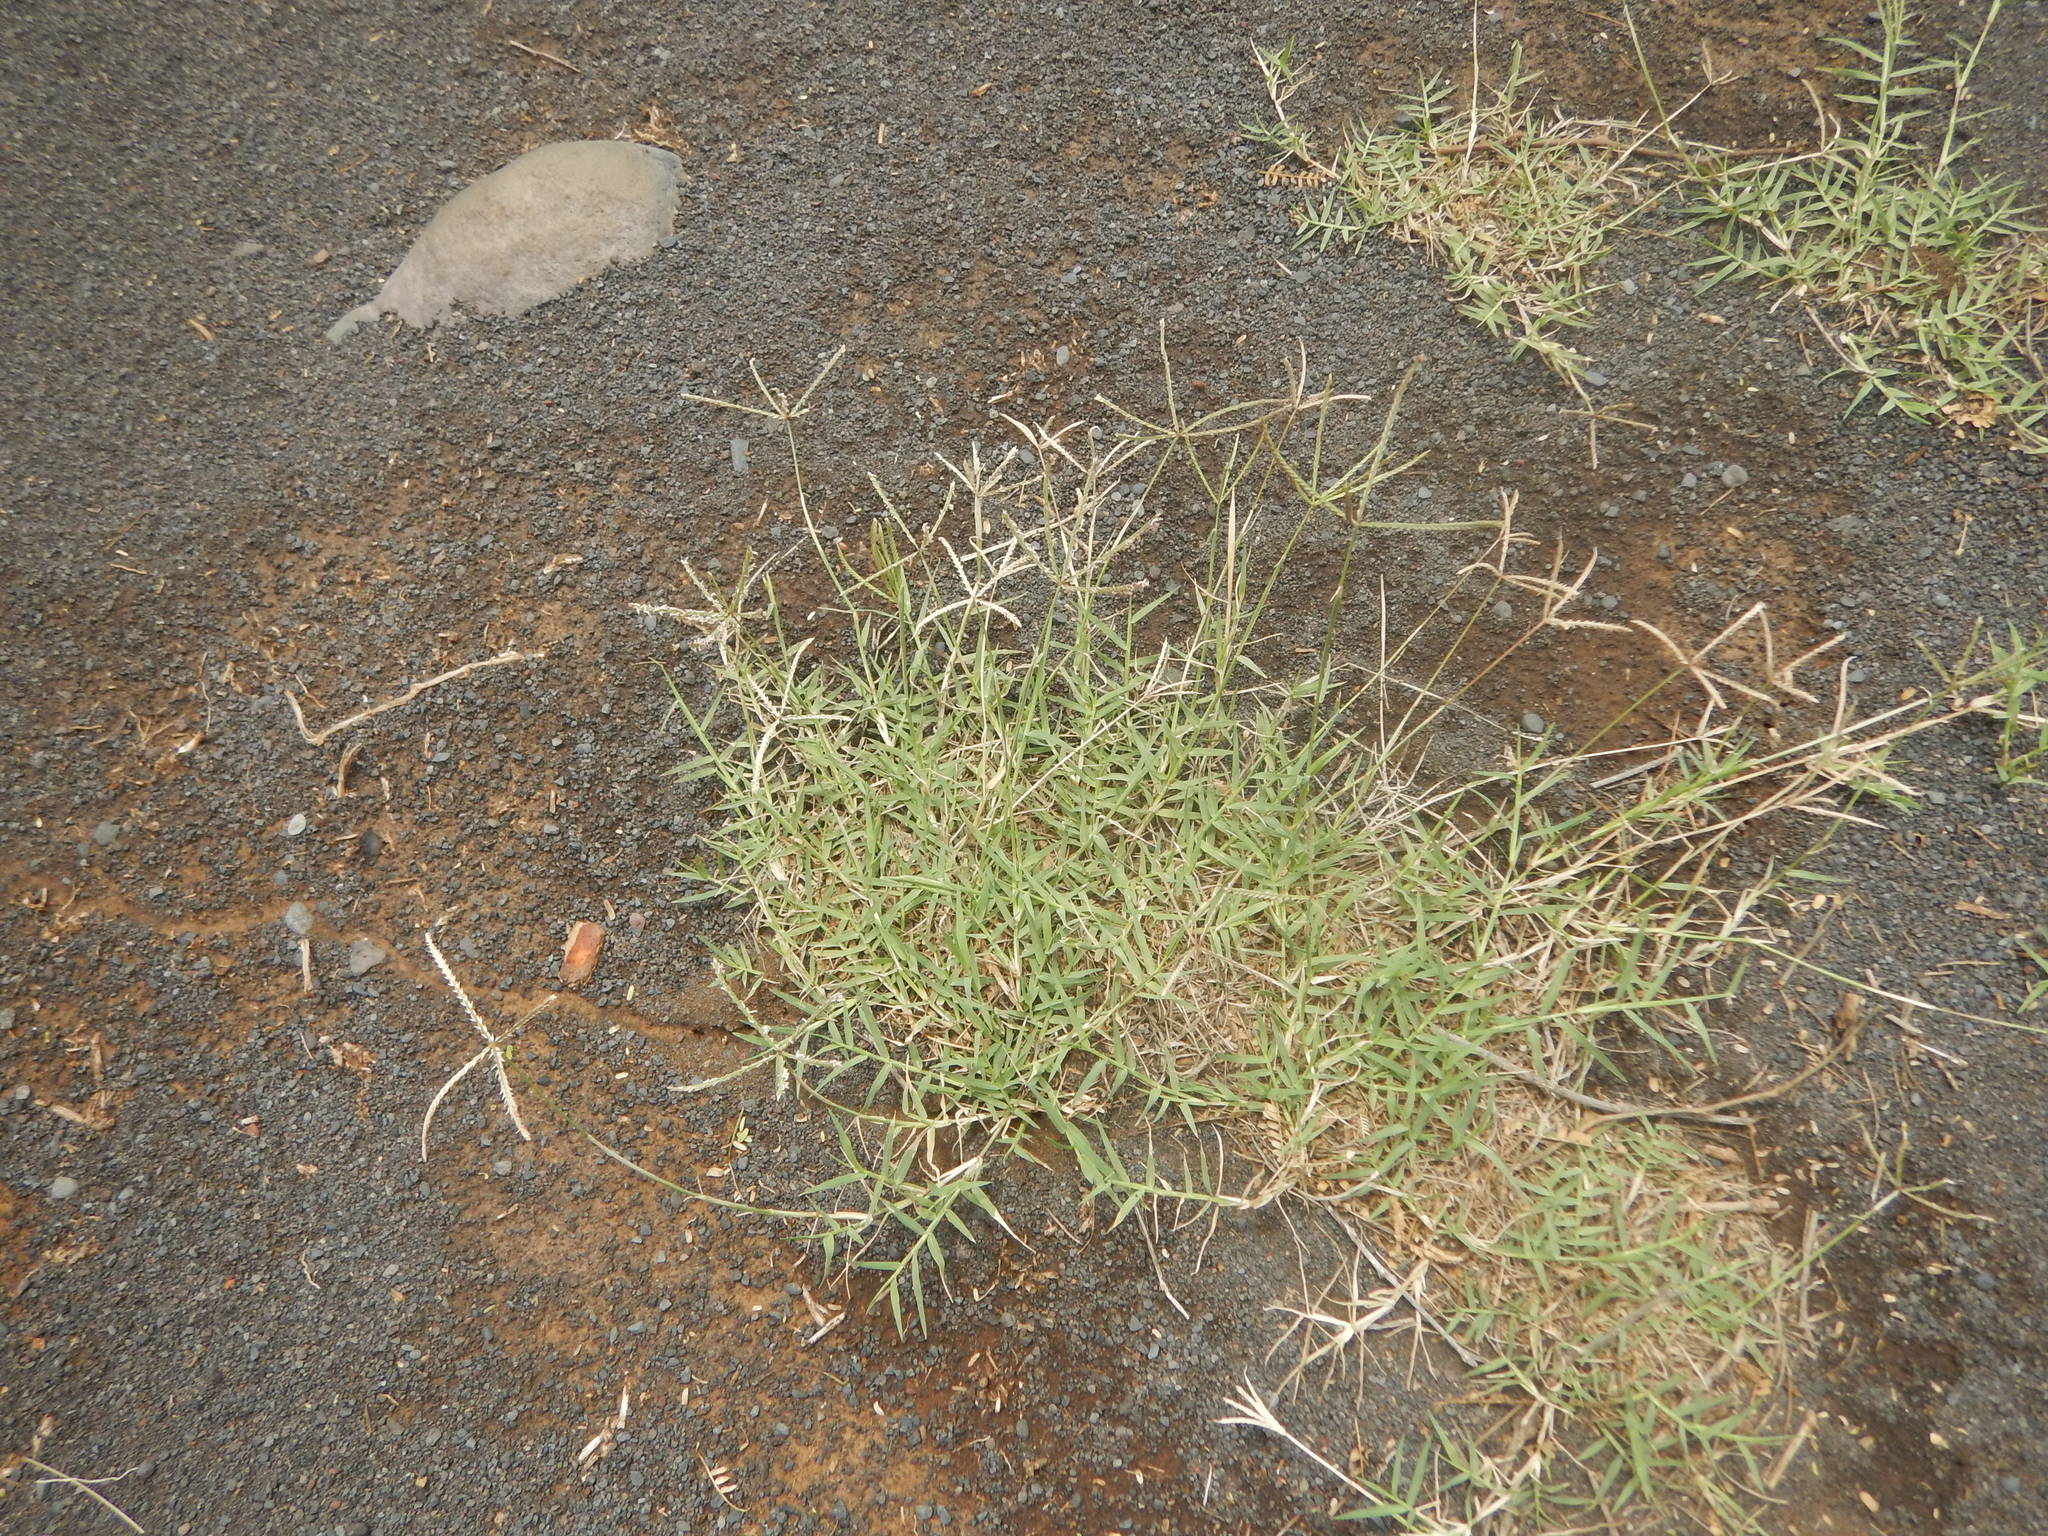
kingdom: Plantae
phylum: Tracheophyta
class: Liliopsida
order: Poales
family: Poaceae
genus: Cynodon
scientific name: Cynodon dactylon
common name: Bermuda grass
